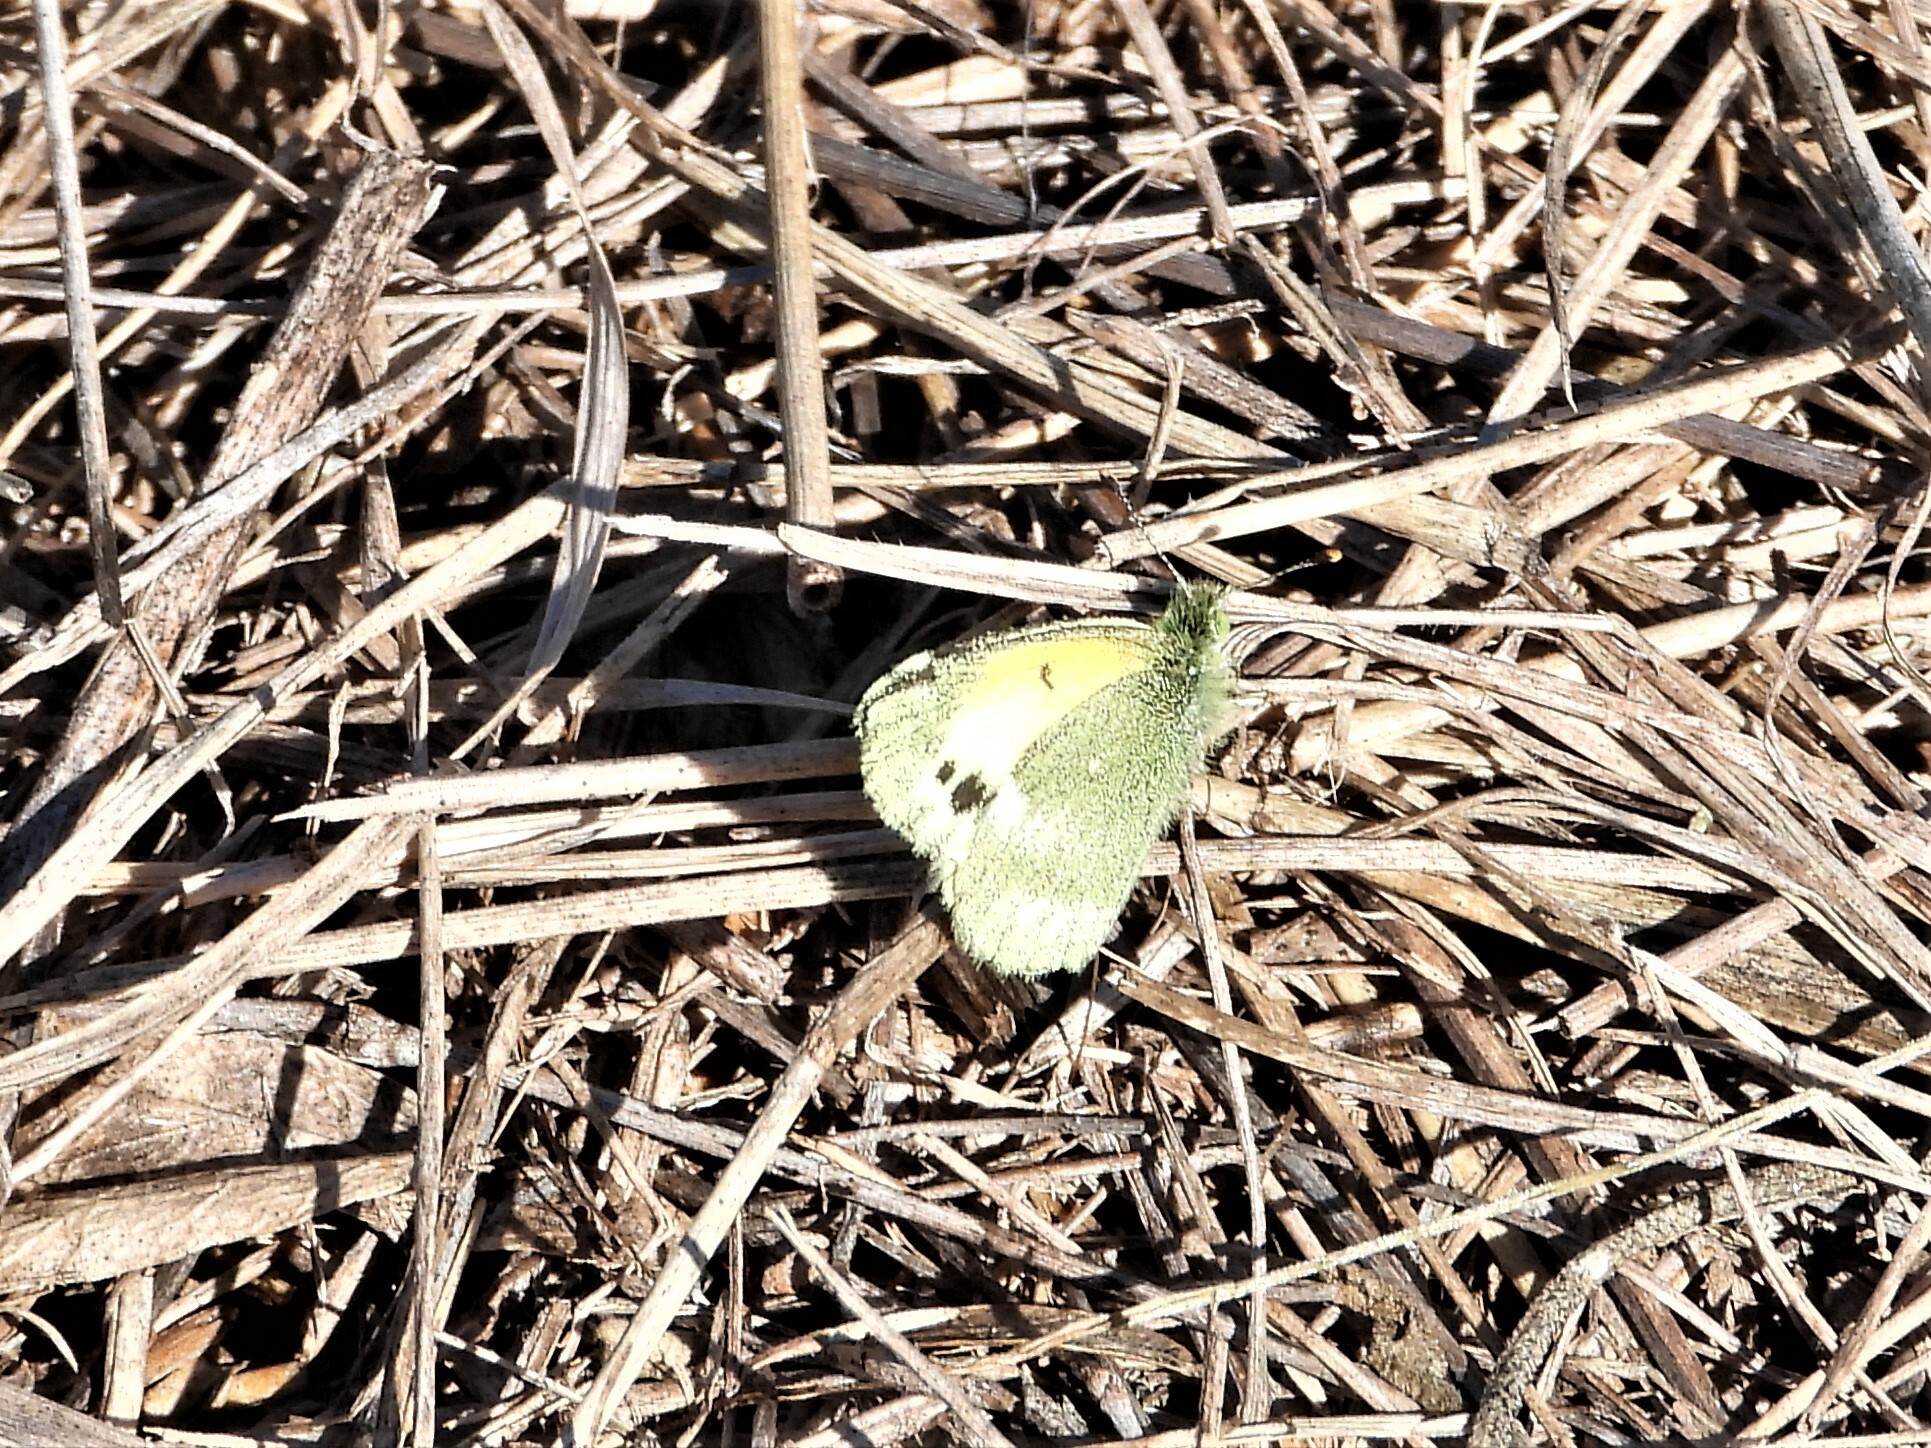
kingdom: Animalia
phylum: Arthropoda
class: Insecta
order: Lepidoptera
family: Pieridae
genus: Nathalis
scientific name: Nathalis iole
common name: Dainty sulphur
